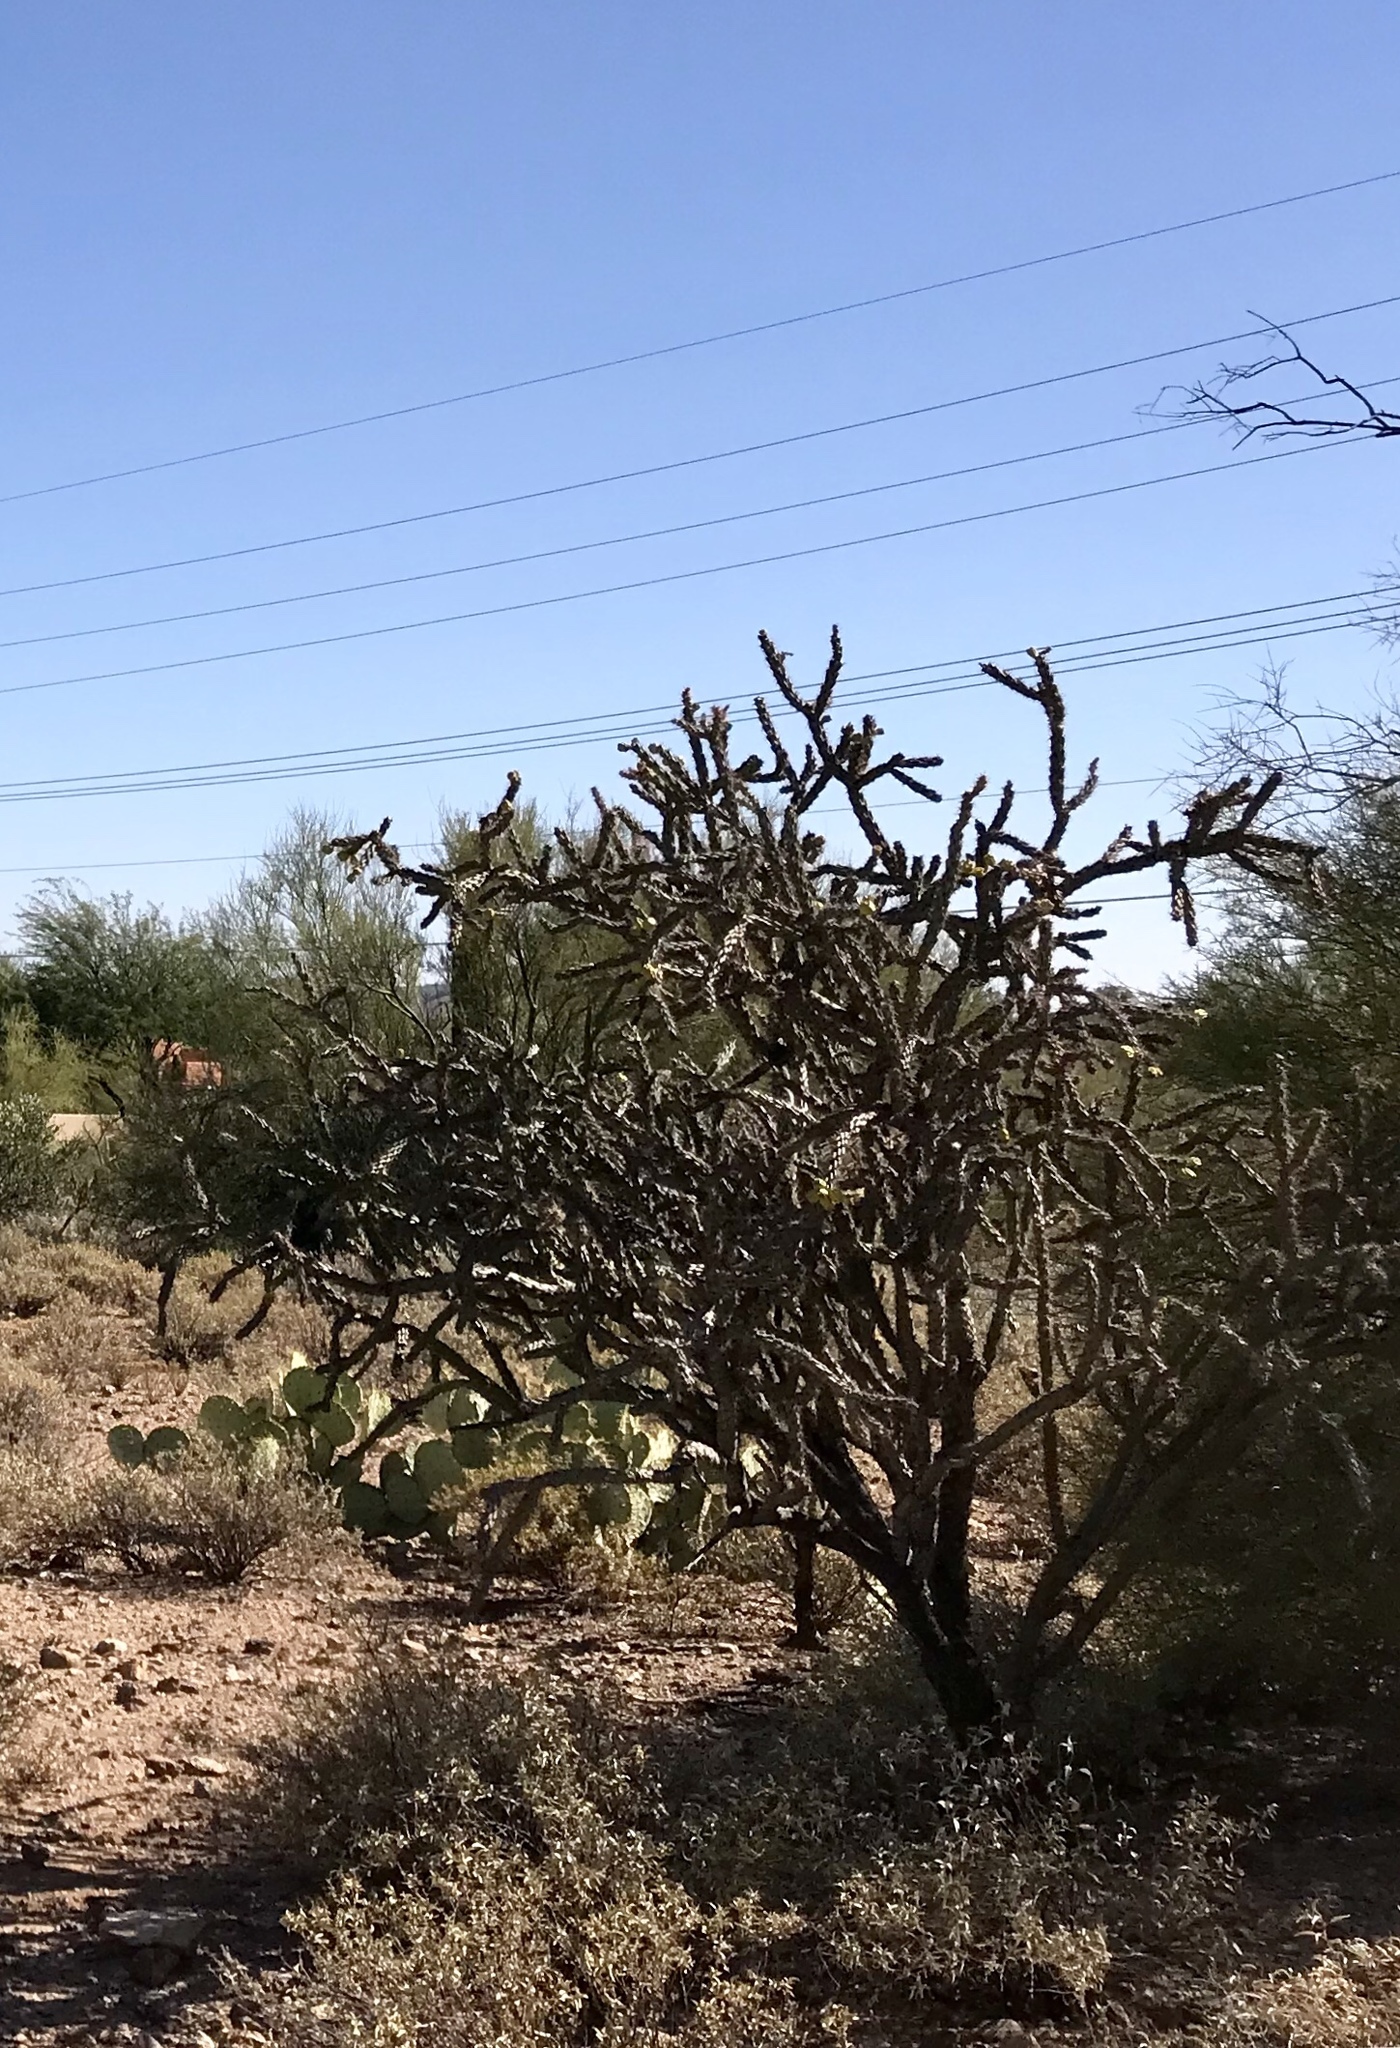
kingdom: Plantae
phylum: Tracheophyta
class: Magnoliopsida
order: Caryophyllales
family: Cactaceae
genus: Cylindropuntia
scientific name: Cylindropuntia acanthocarpa
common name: Buckhorn cholla
